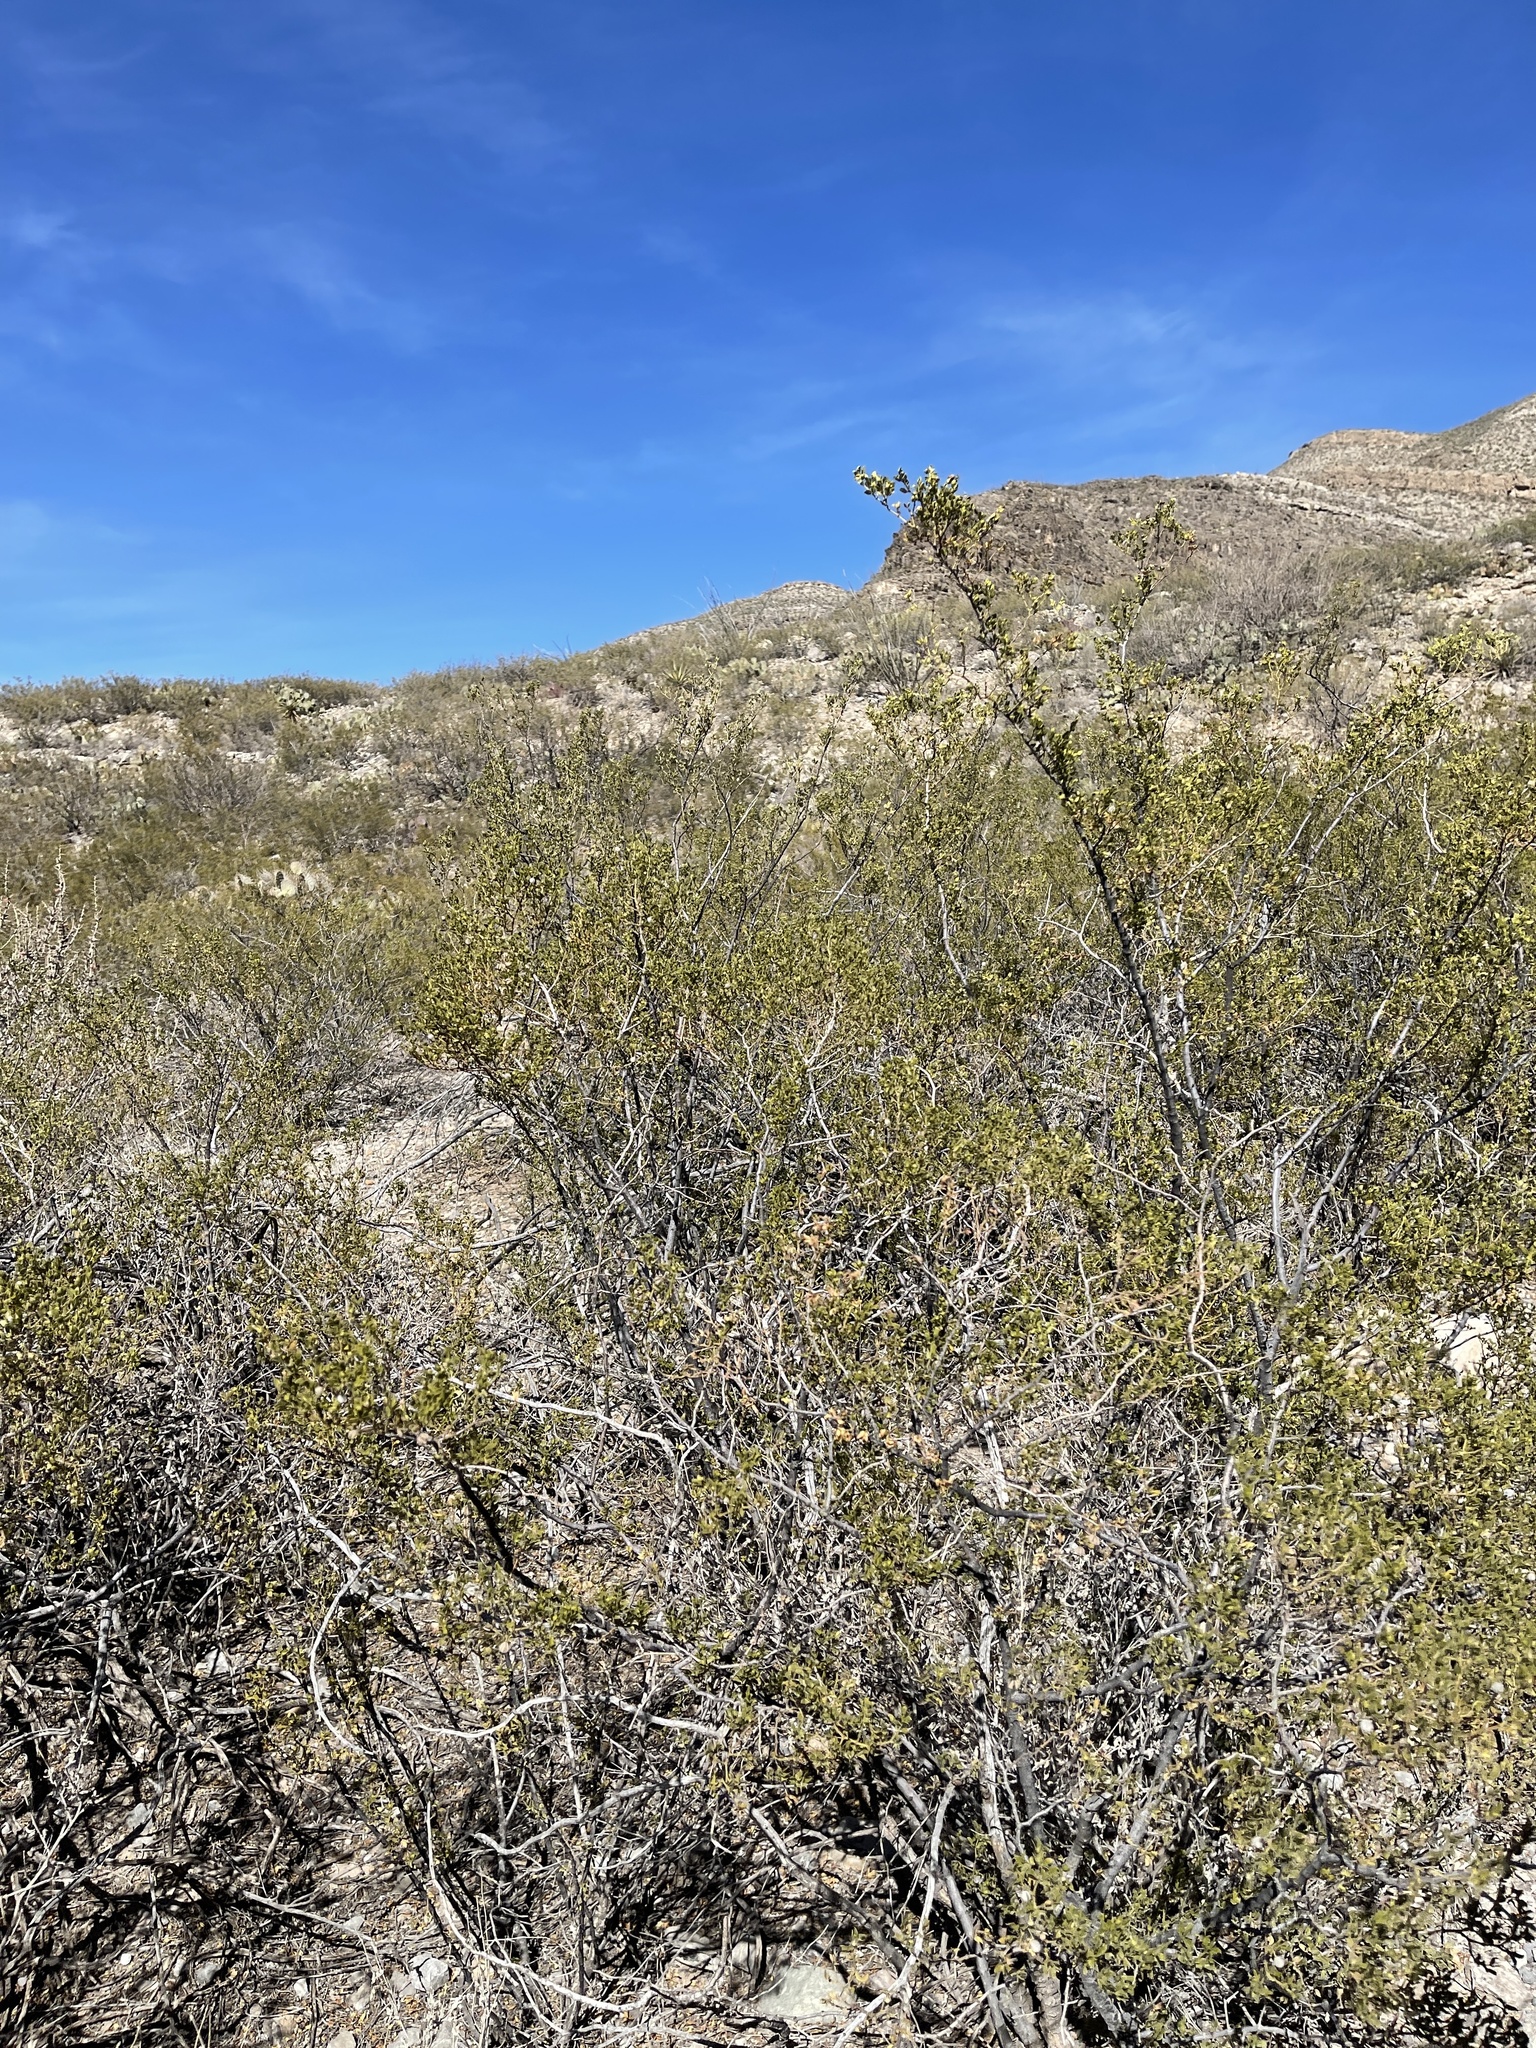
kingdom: Plantae
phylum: Tracheophyta
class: Magnoliopsida
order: Zygophyllales
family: Zygophyllaceae
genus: Larrea
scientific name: Larrea tridentata
